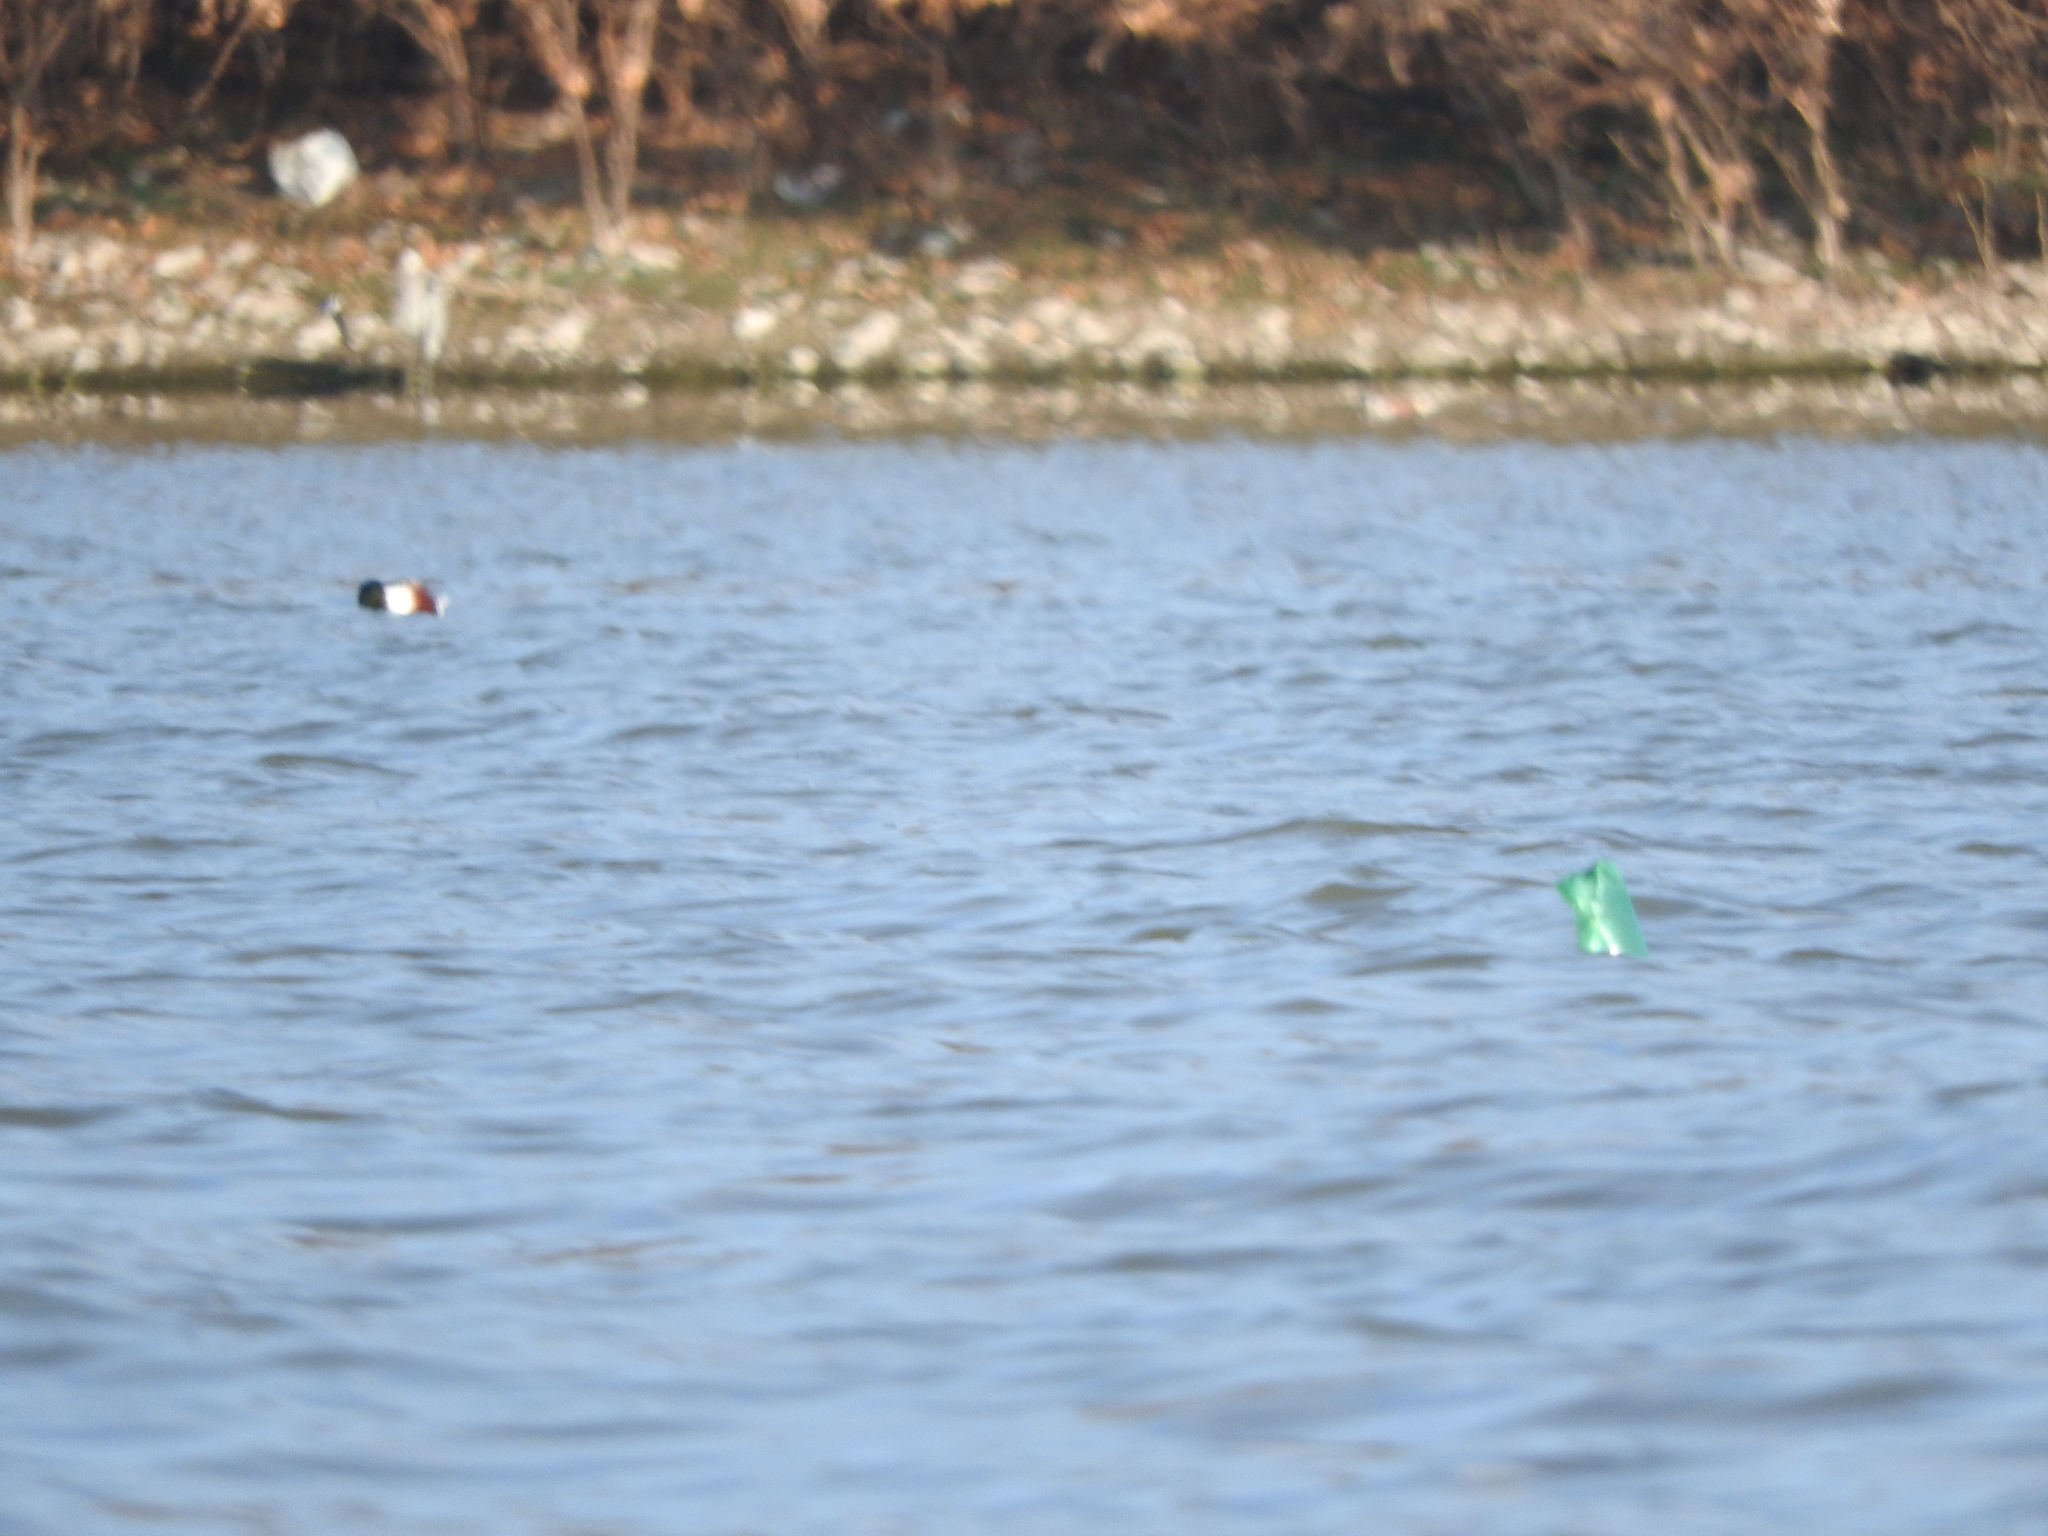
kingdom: Animalia
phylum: Chordata
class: Aves
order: Anseriformes
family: Anatidae
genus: Spatula
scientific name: Spatula clypeata
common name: Northern shoveler
